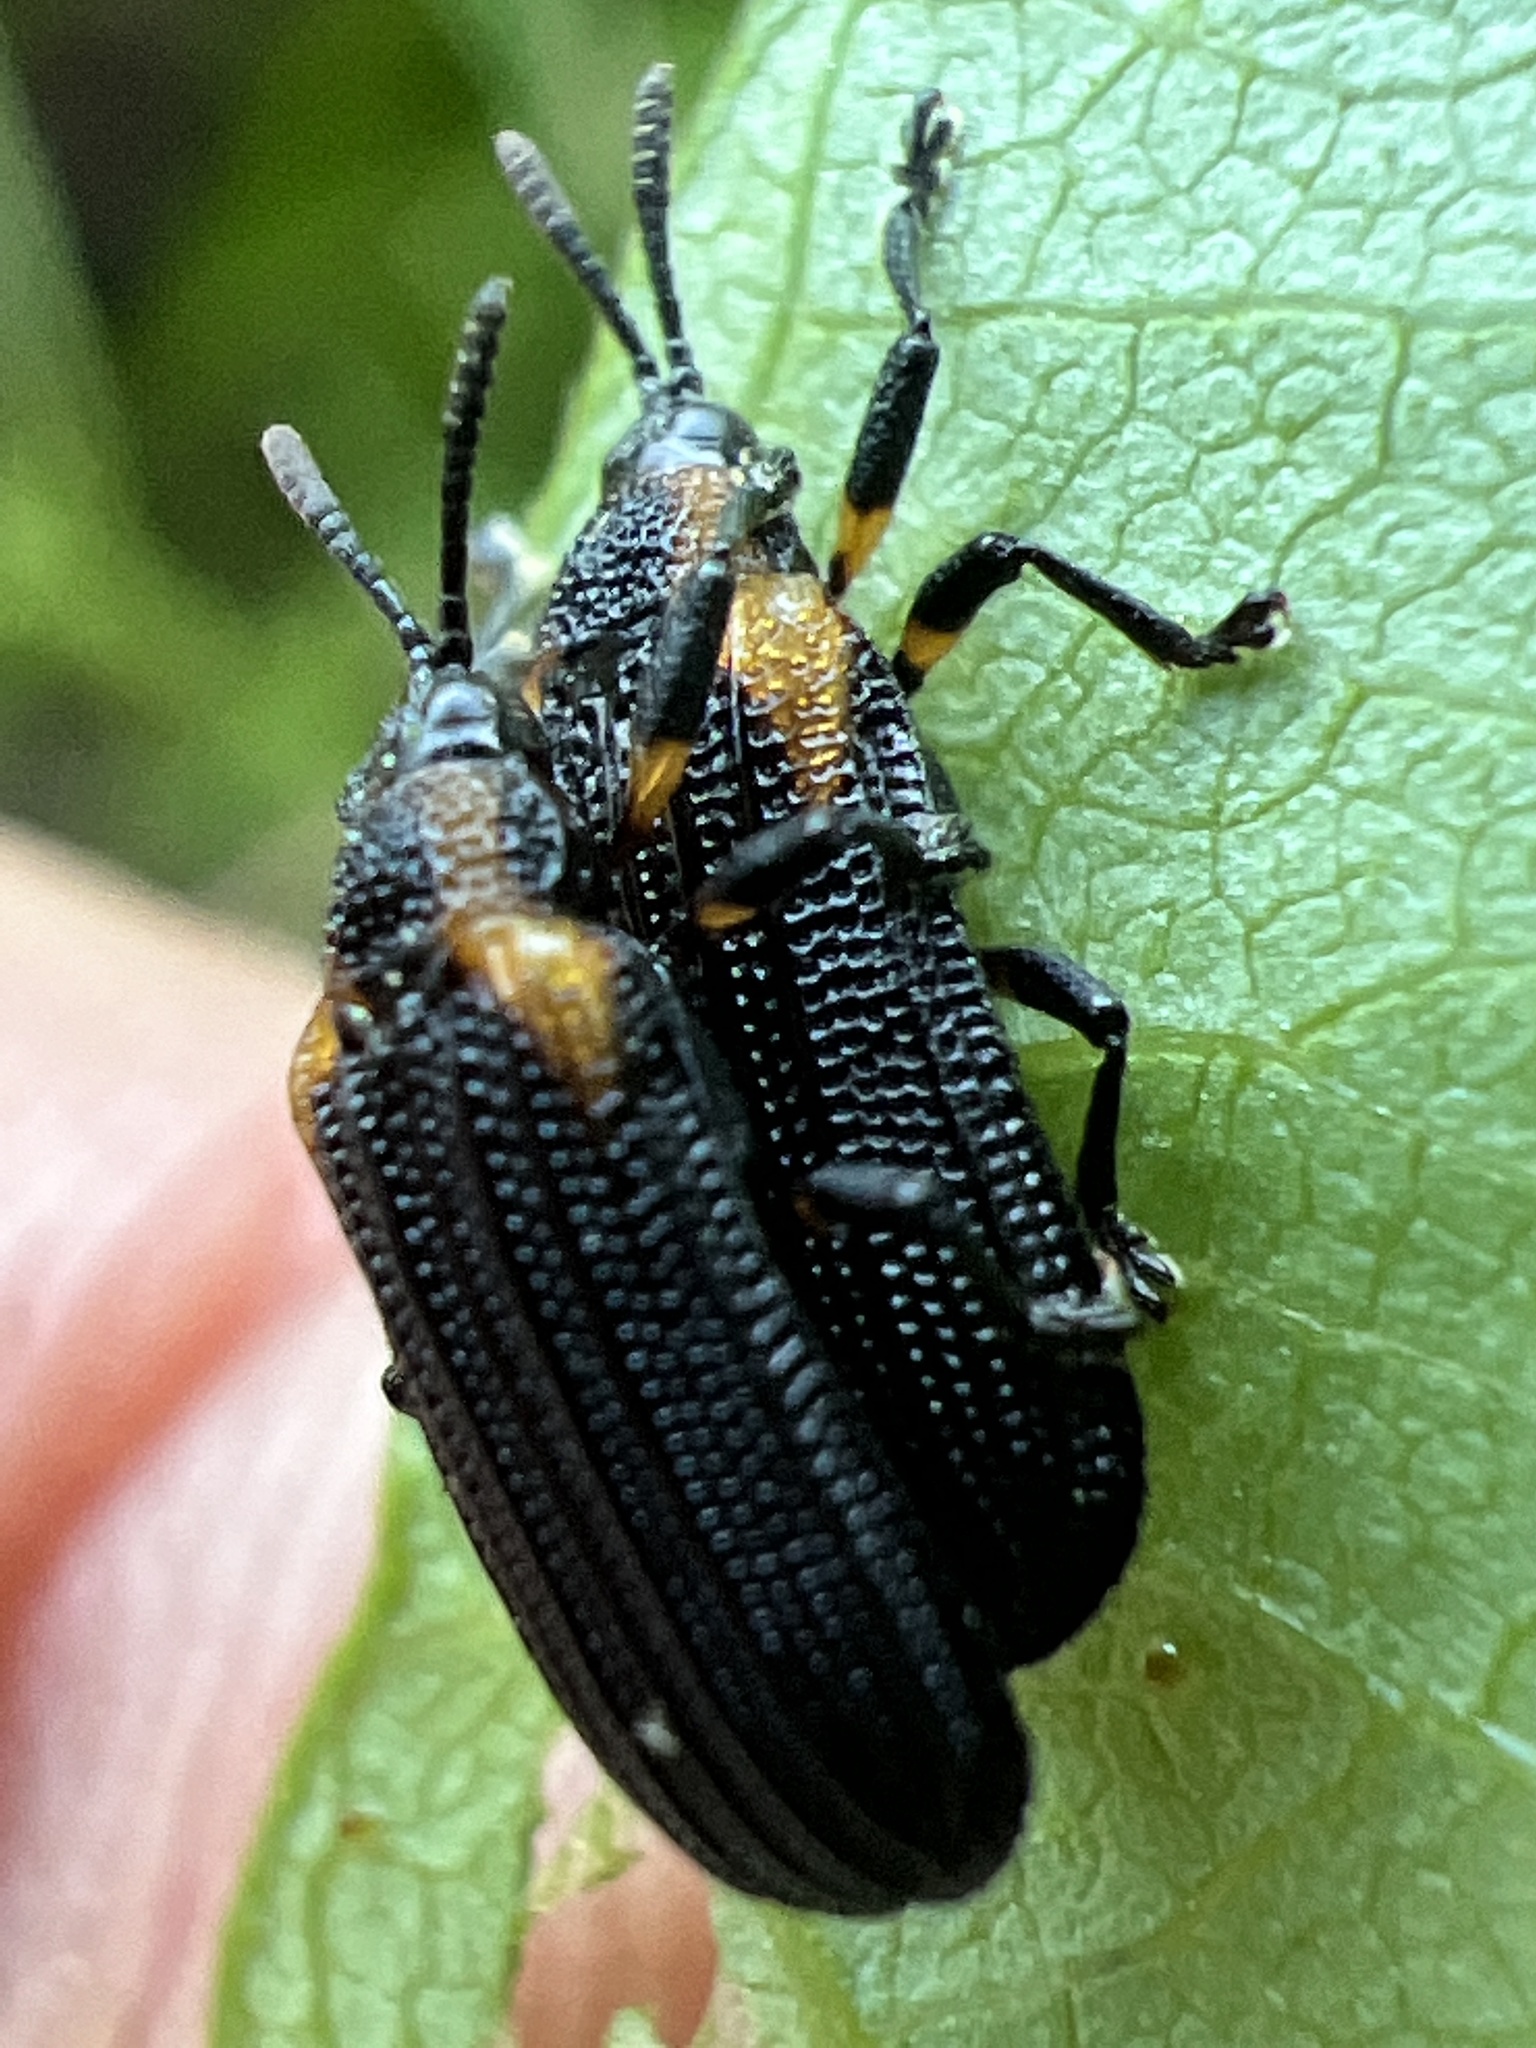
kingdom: Animalia
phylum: Arthropoda
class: Insecta
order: Coleoptera
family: Chrysomelidae
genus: Odontota
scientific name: Odontota scapularis
